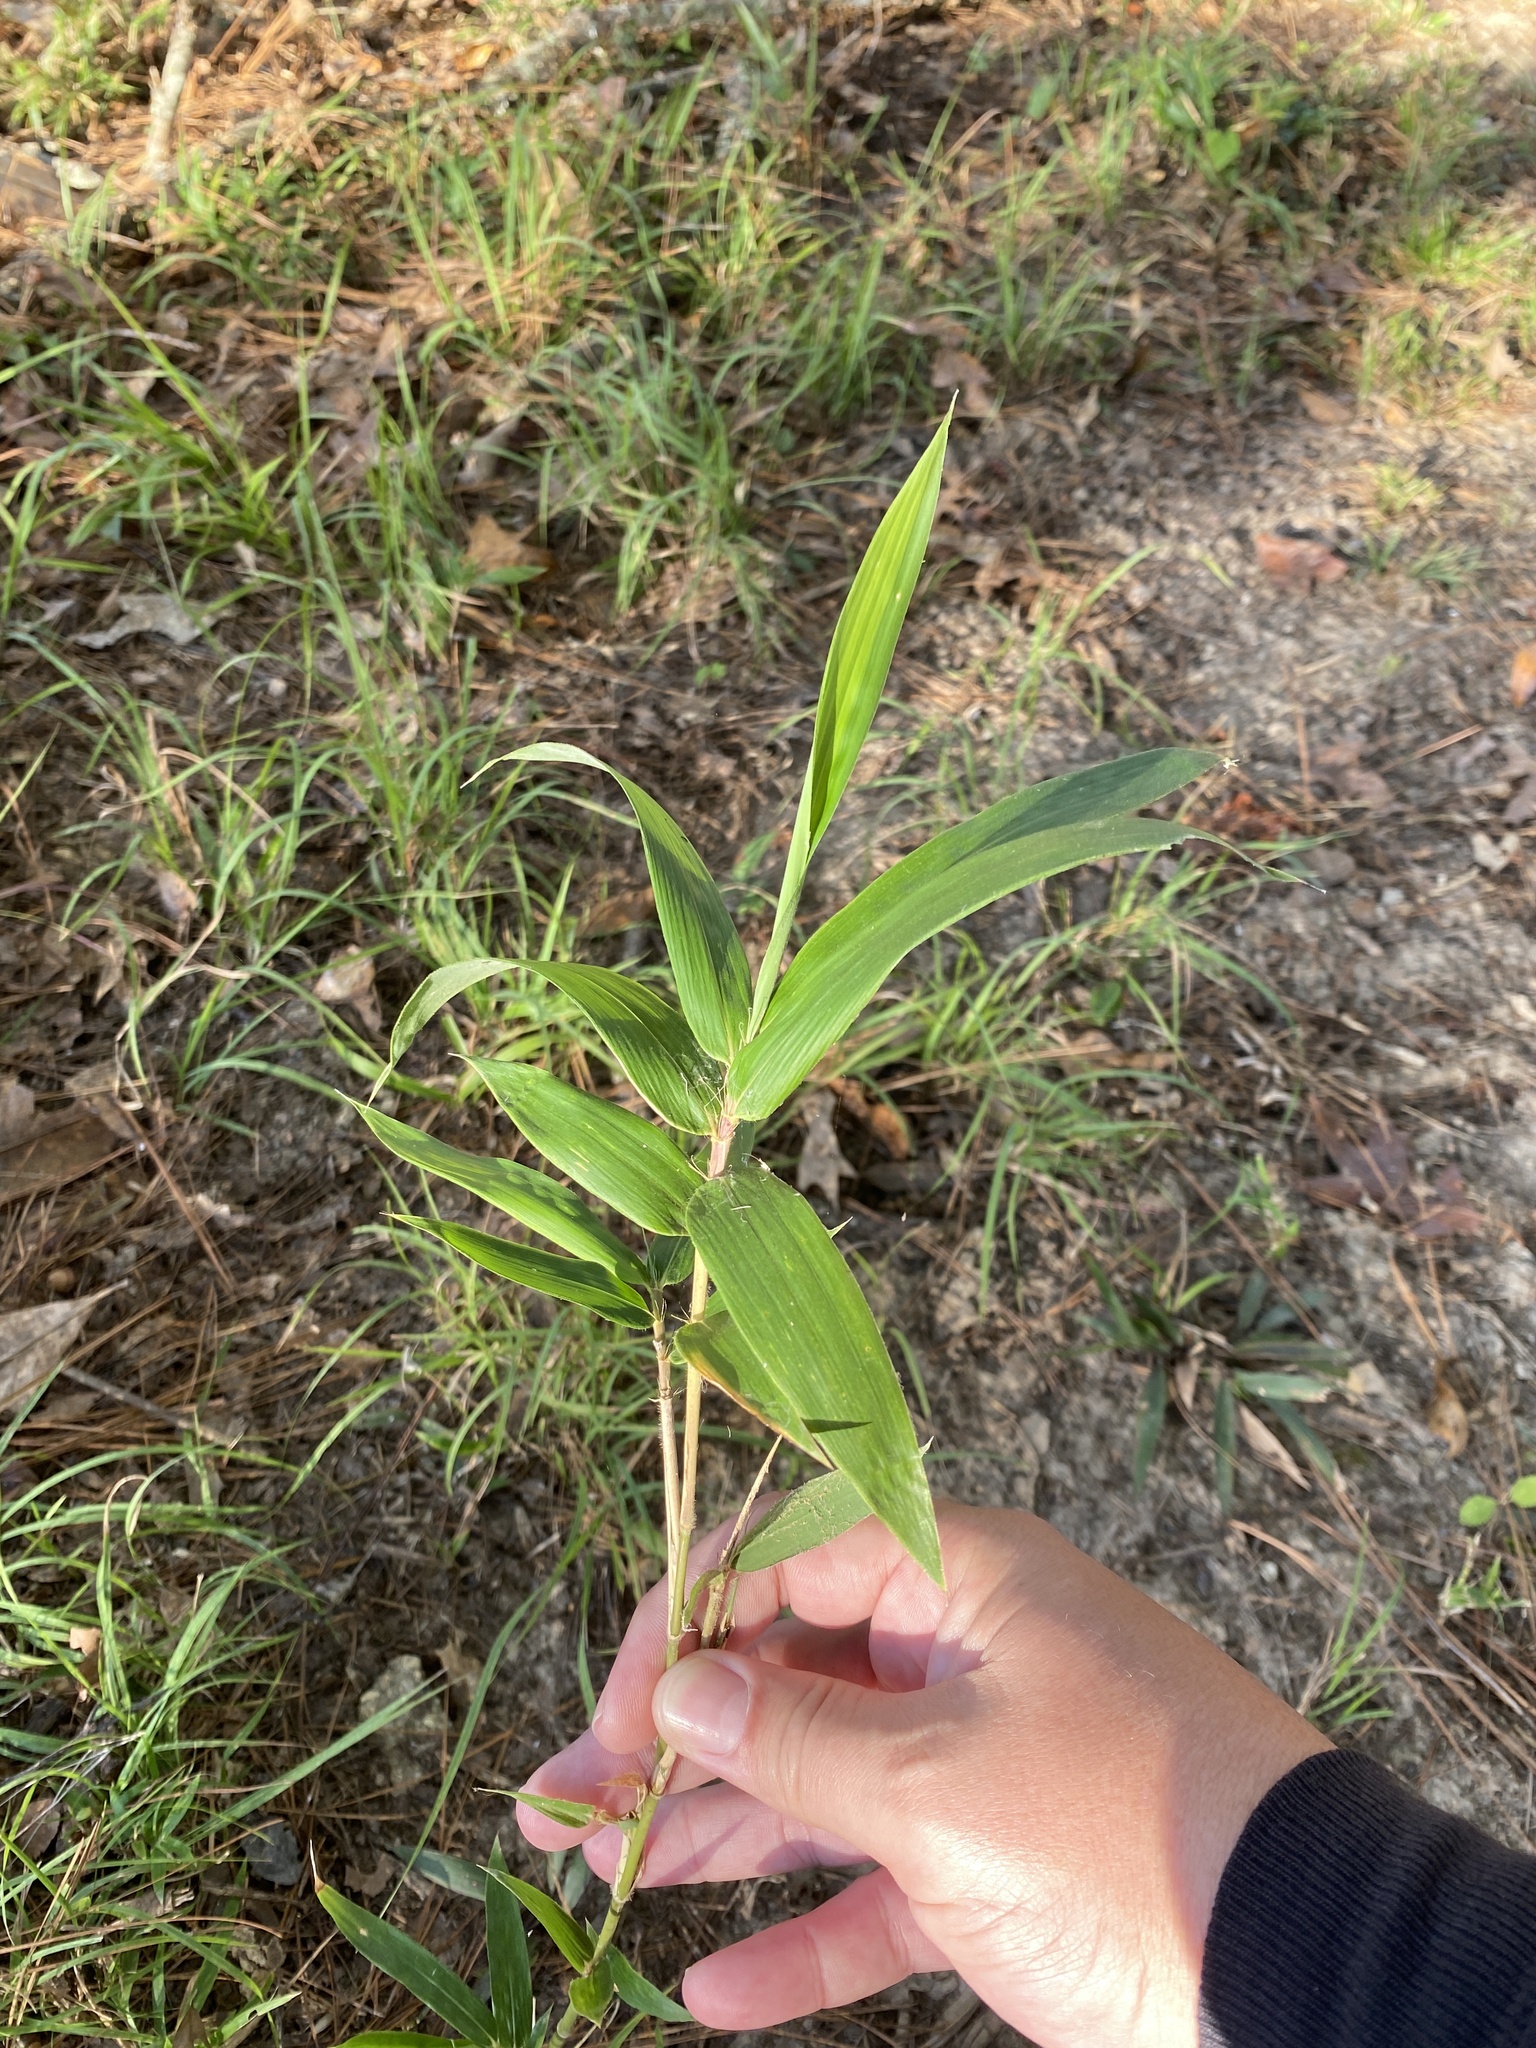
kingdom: Plantae
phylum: Tracheophyta
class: Liliopsida
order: Poales
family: Poaceae
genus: Arundinaria
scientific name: Arundinaria gigantea
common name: Giant cane
